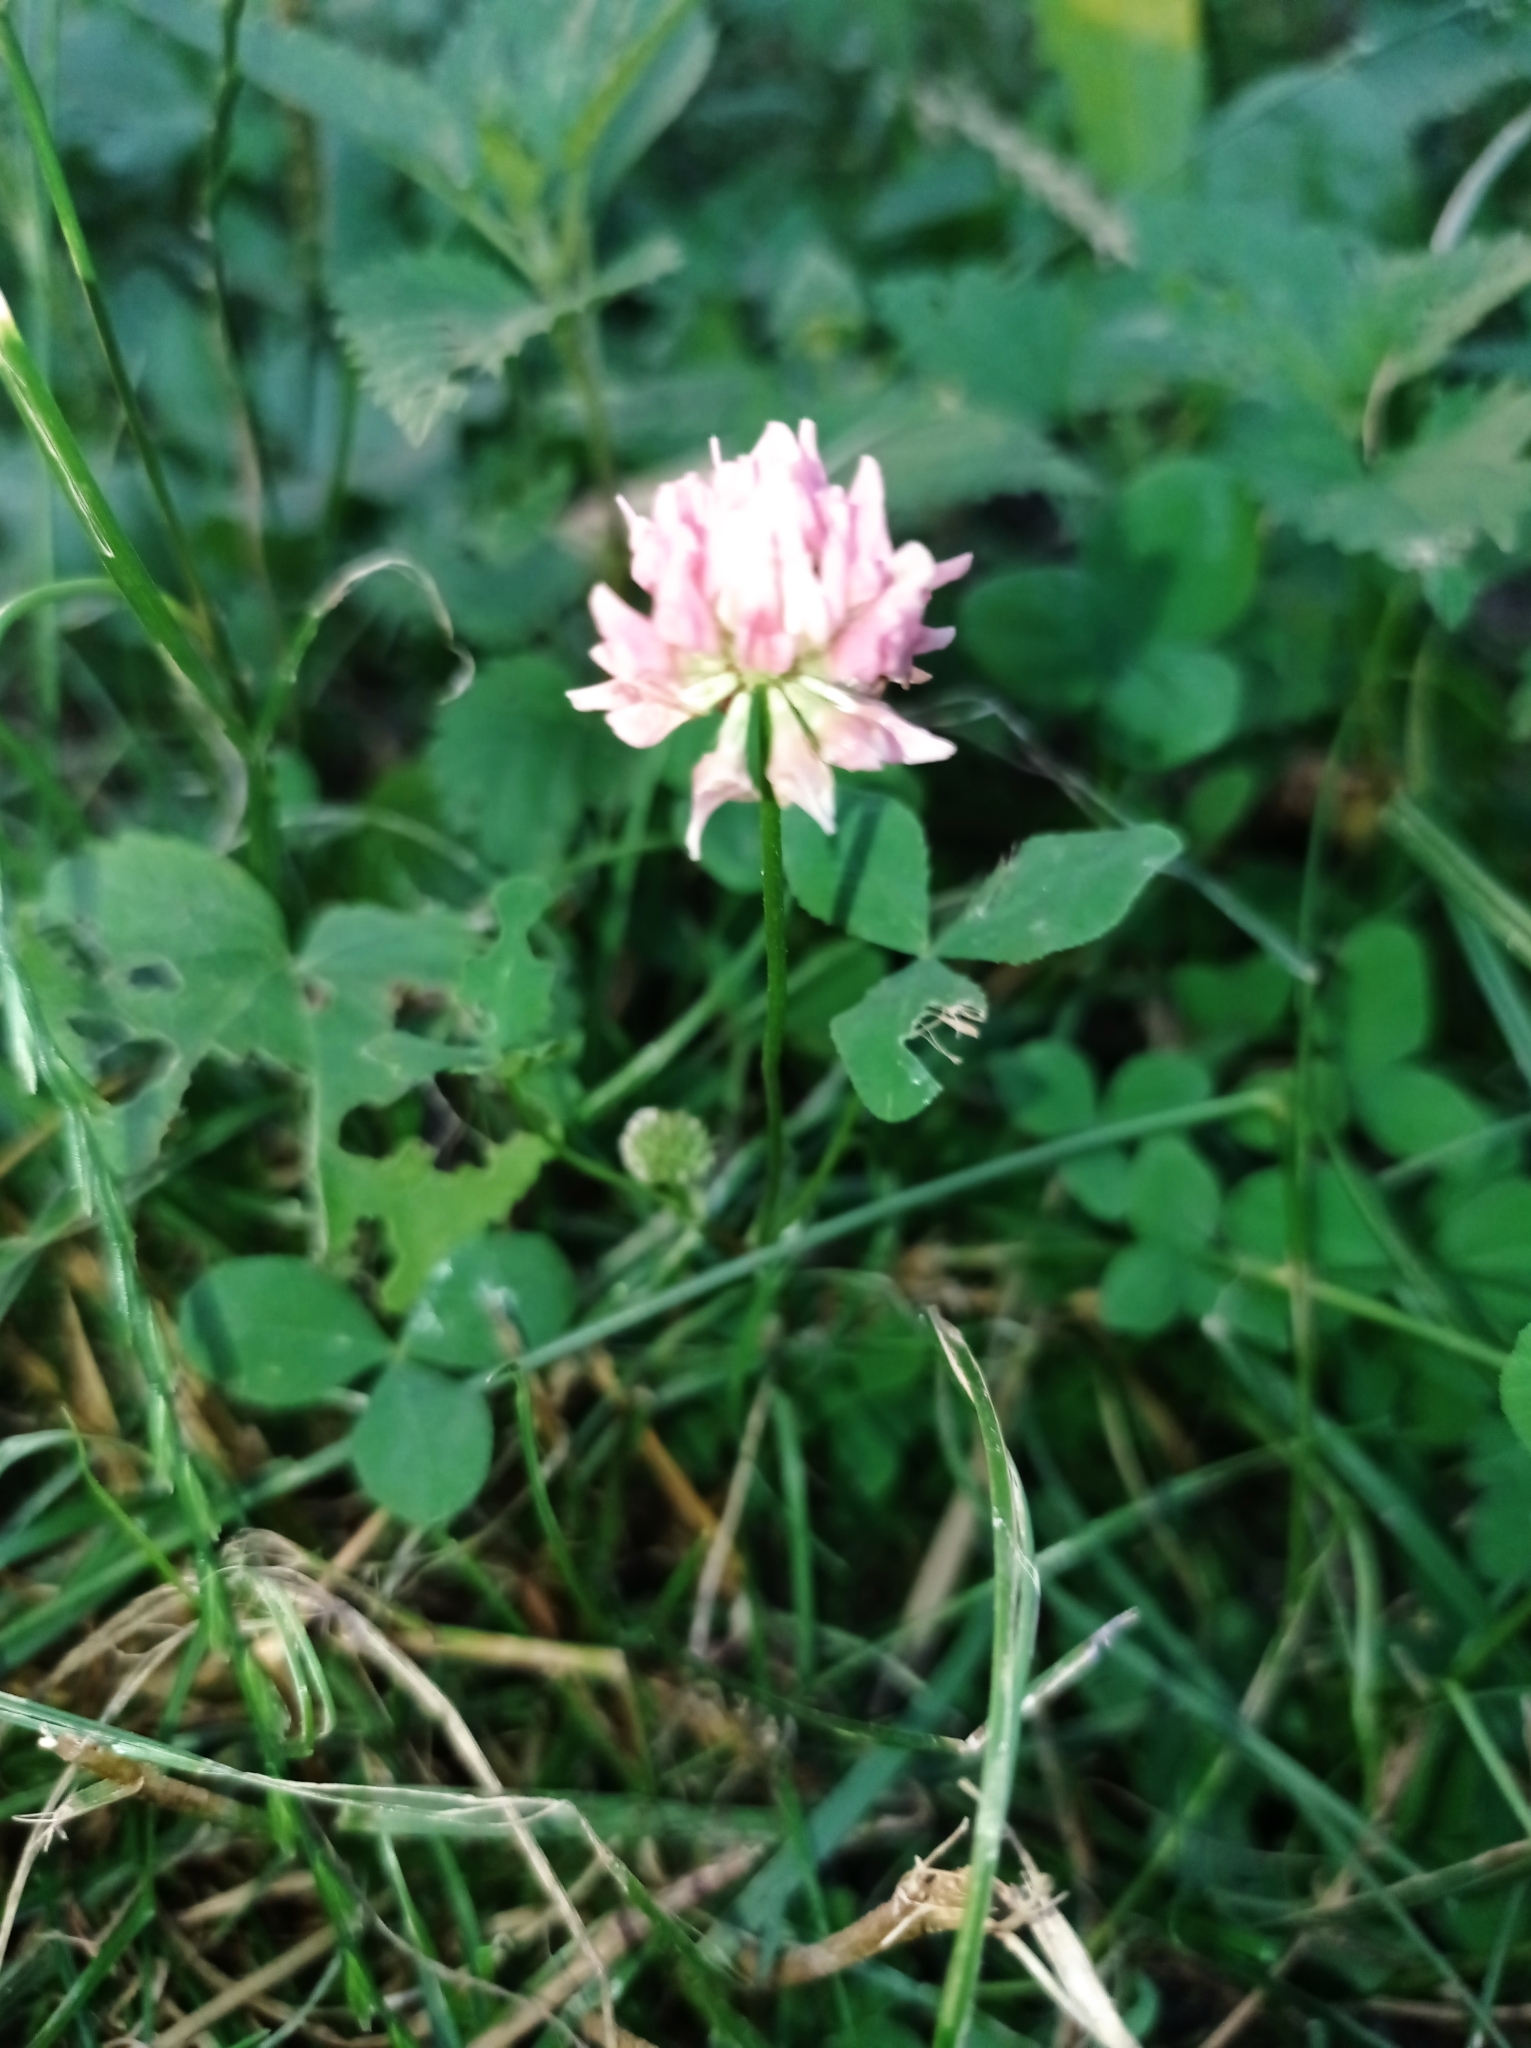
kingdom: Plantae
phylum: Tracheophyta
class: Magnoliopsida
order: Fabales
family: Fabaceae
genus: Trifolium
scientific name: Trifolium repens
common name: White clover
